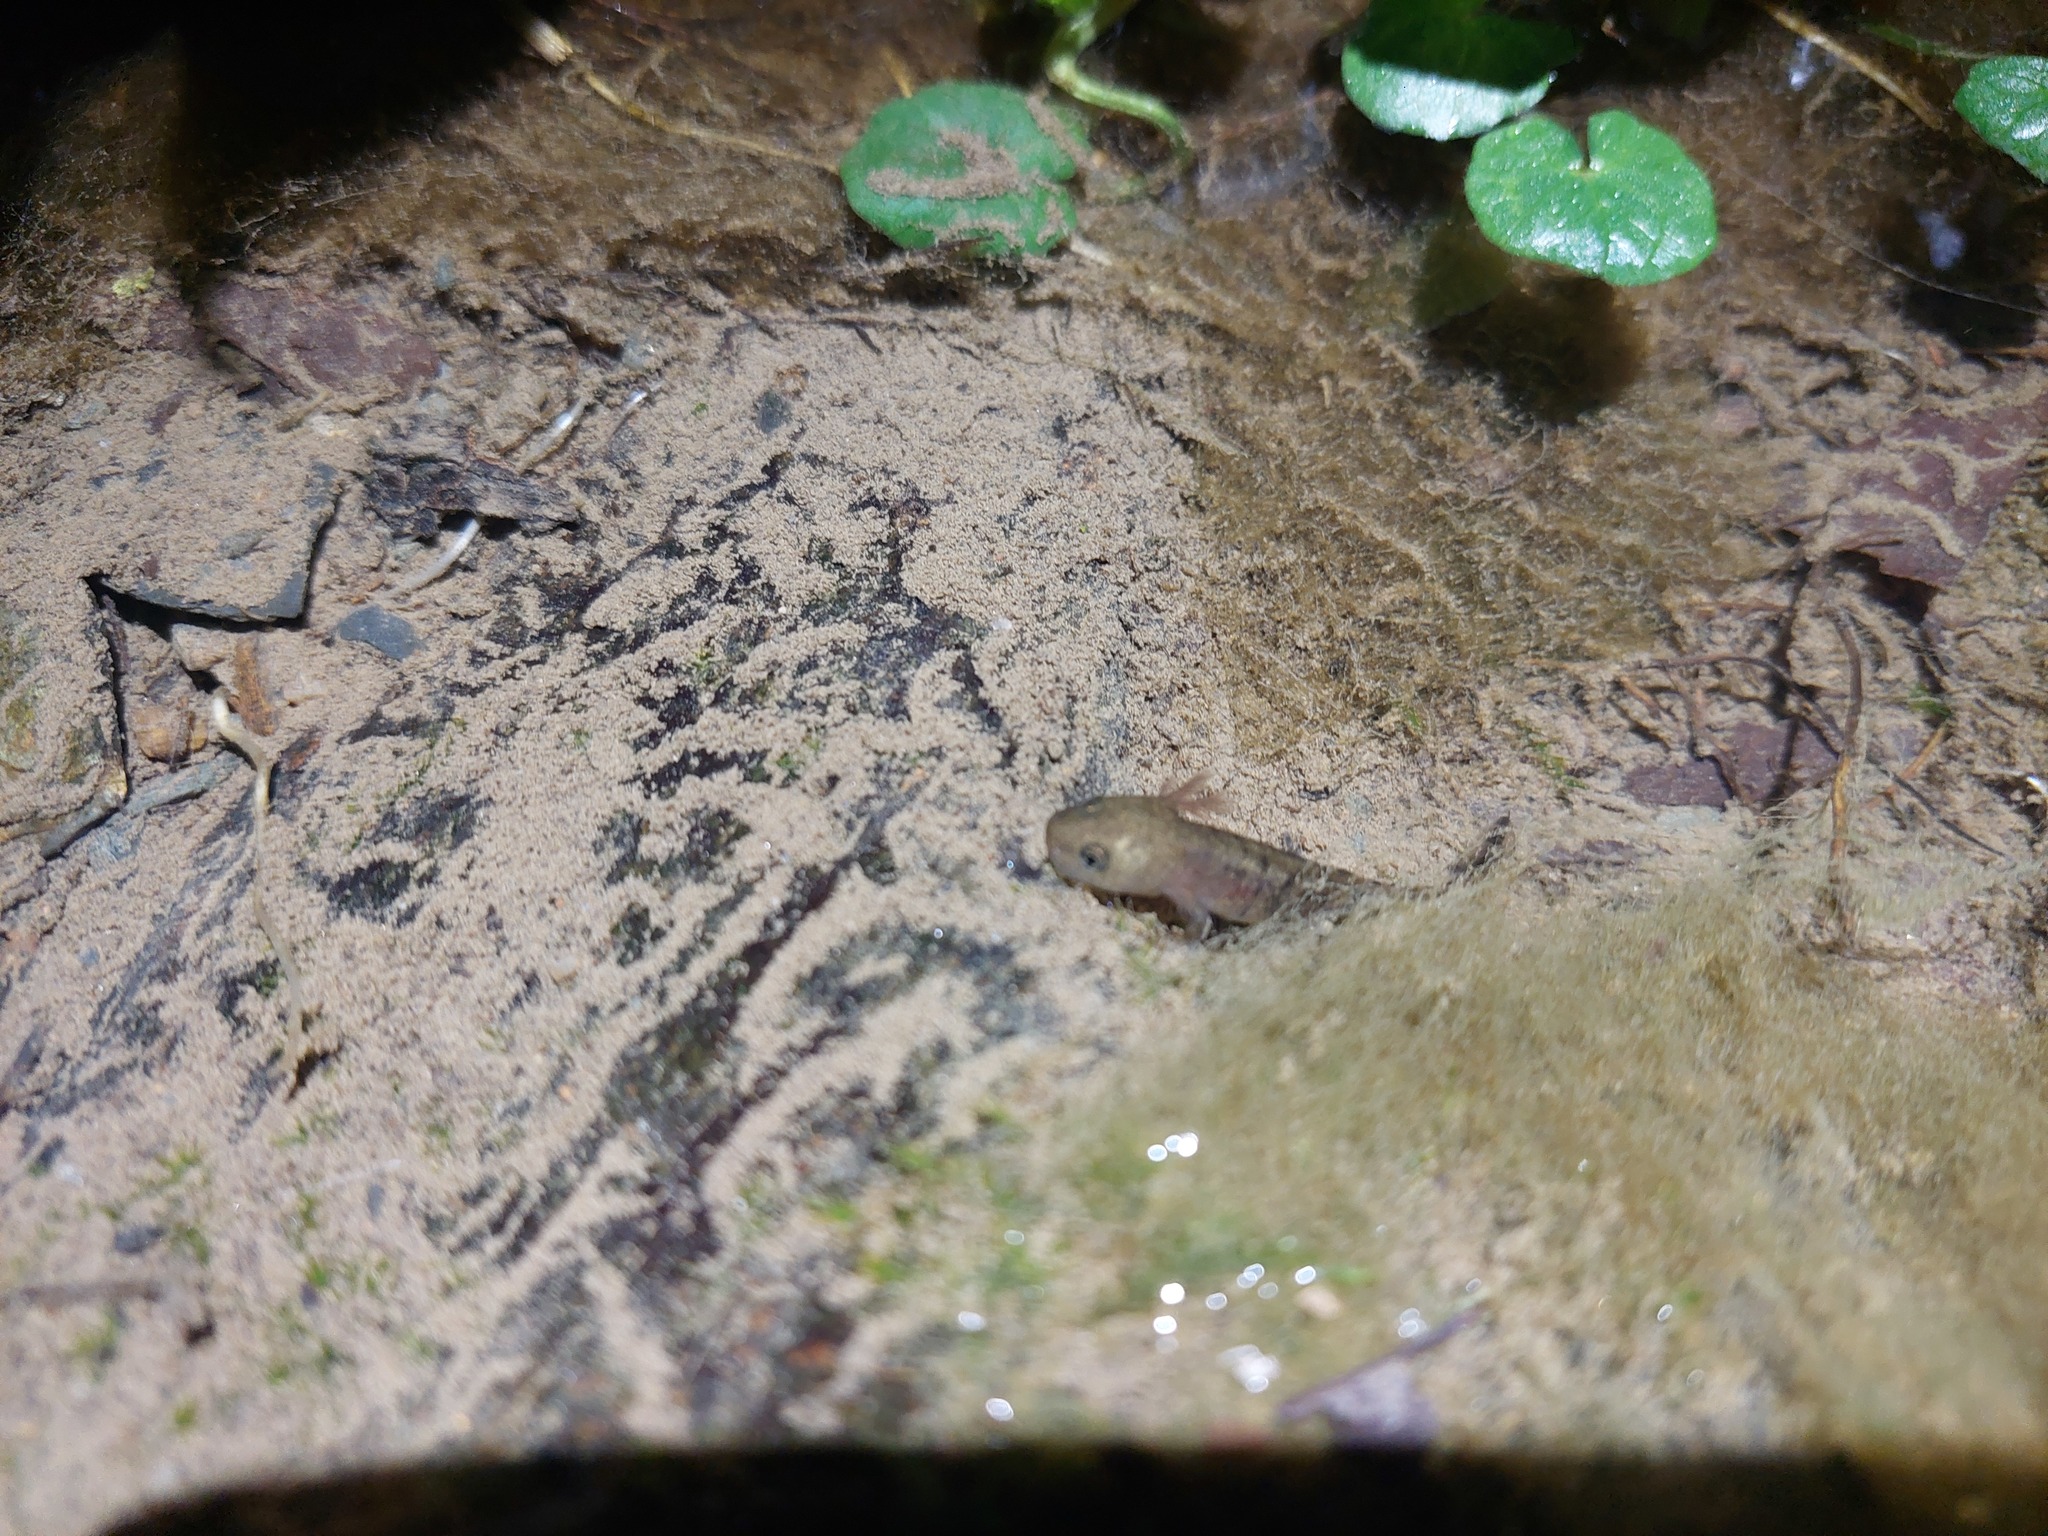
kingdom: Animalia
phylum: Chordata
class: Amphibia
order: Caudata
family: Salamandridae
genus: Salamandra
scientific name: Salamandra salamandra
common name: Fire salamander
